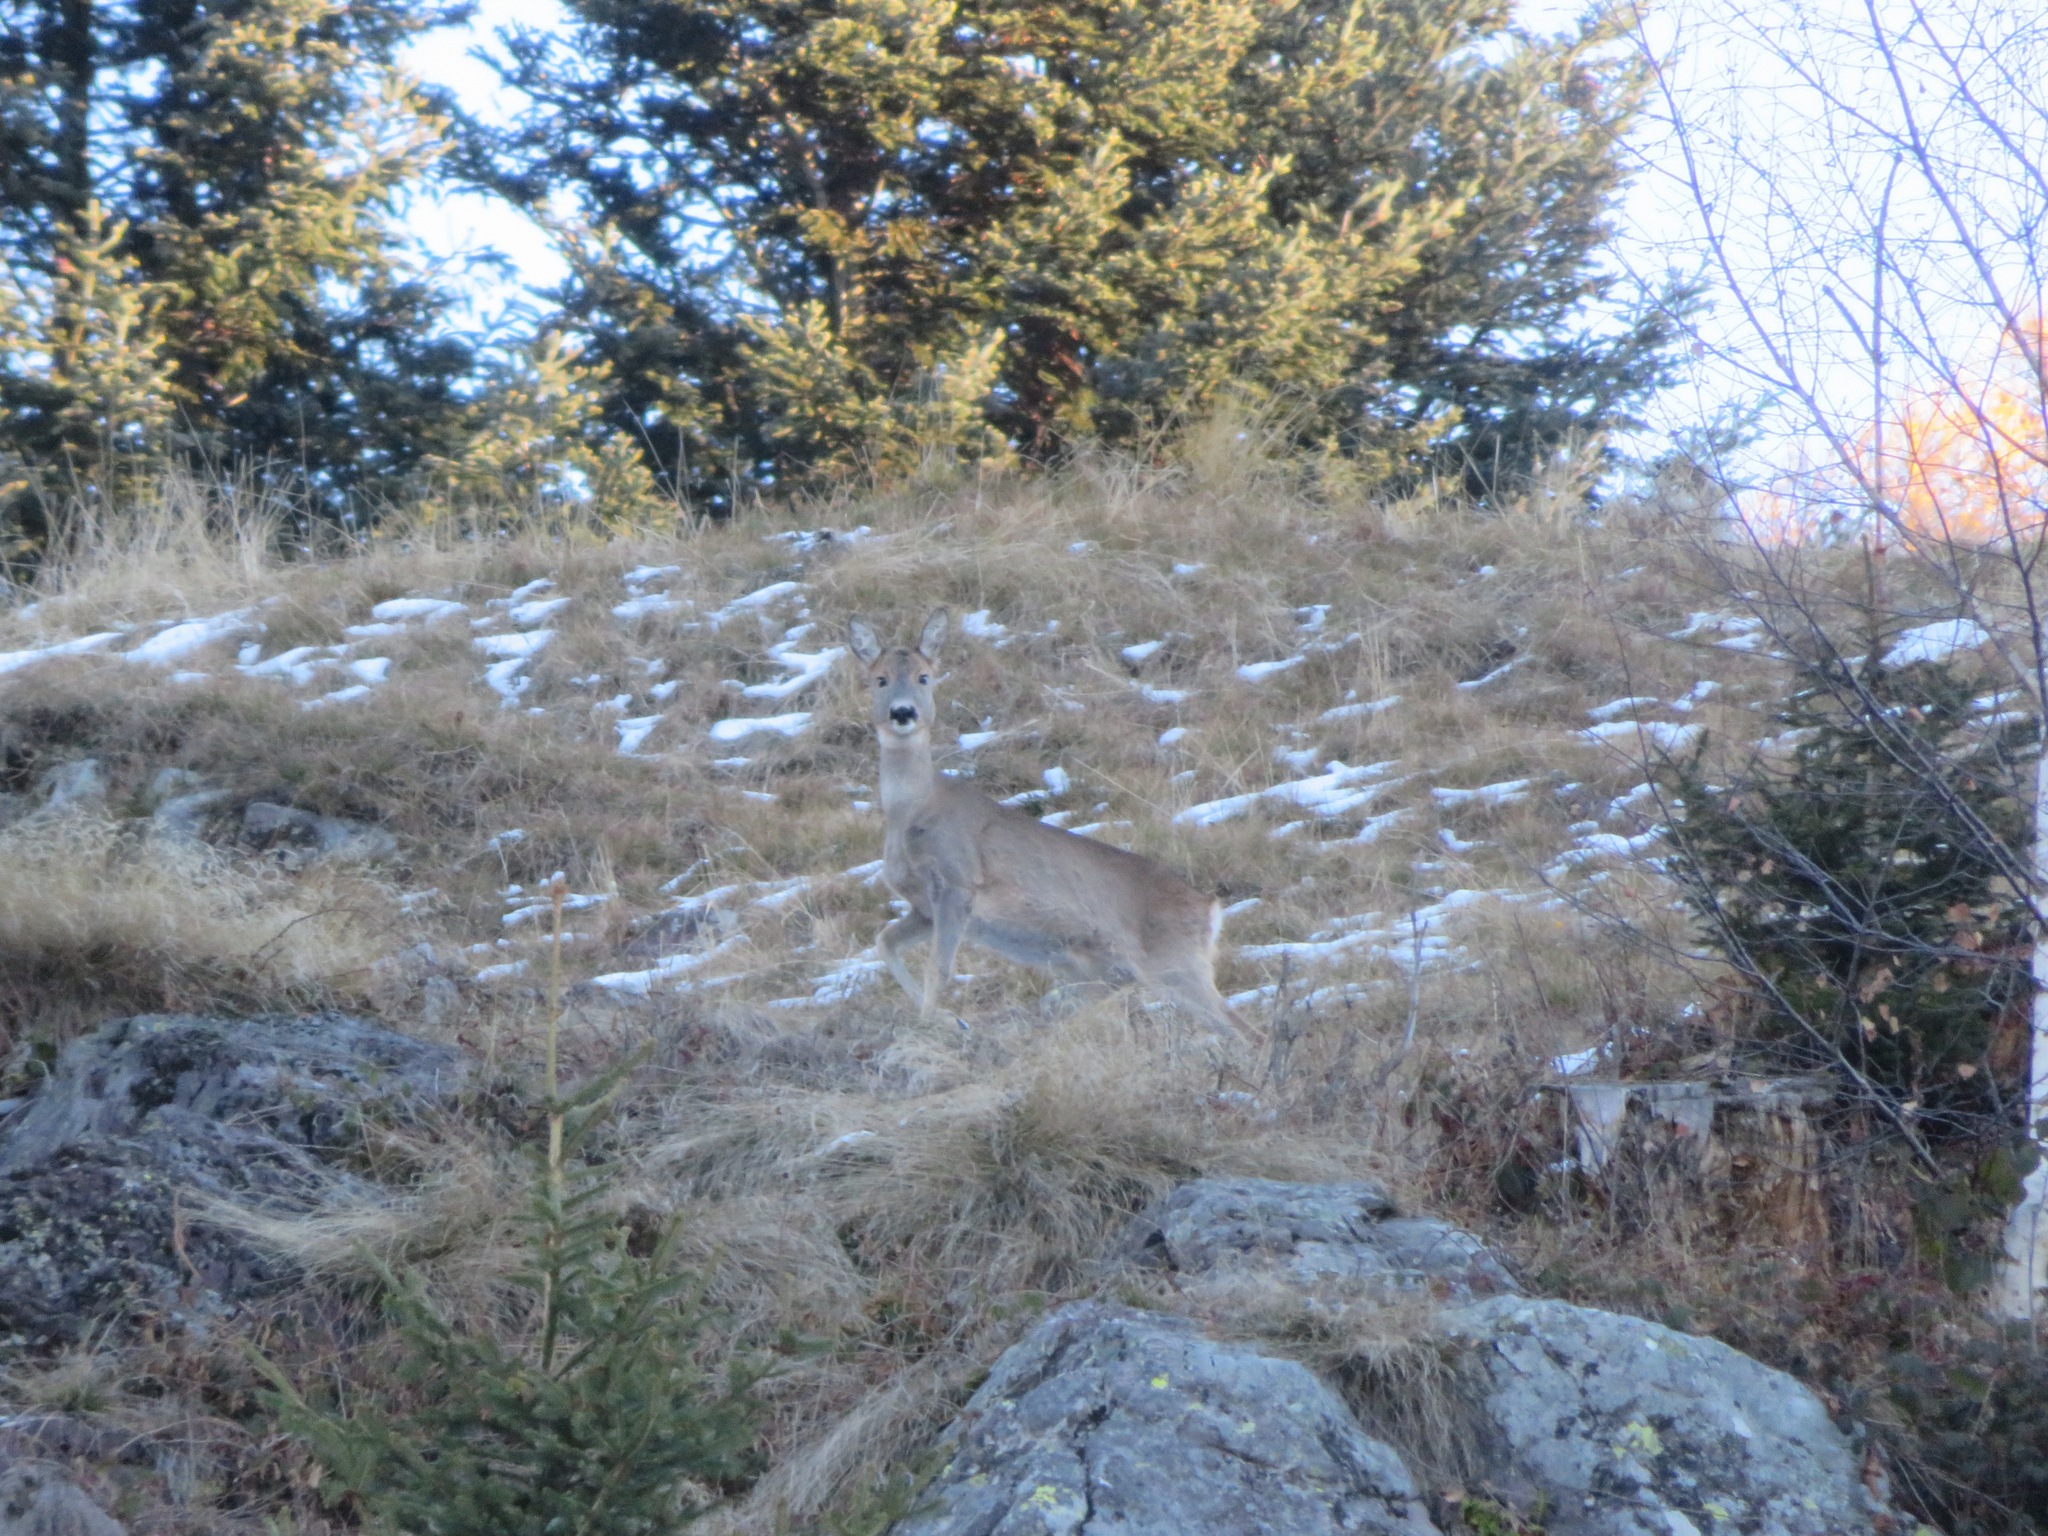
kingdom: Animalia
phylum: Chordata
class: Mammalia
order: Artiodactyla
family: Cervidae
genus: Capreolus
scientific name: Capreolus capreolus
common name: Western roe deer
